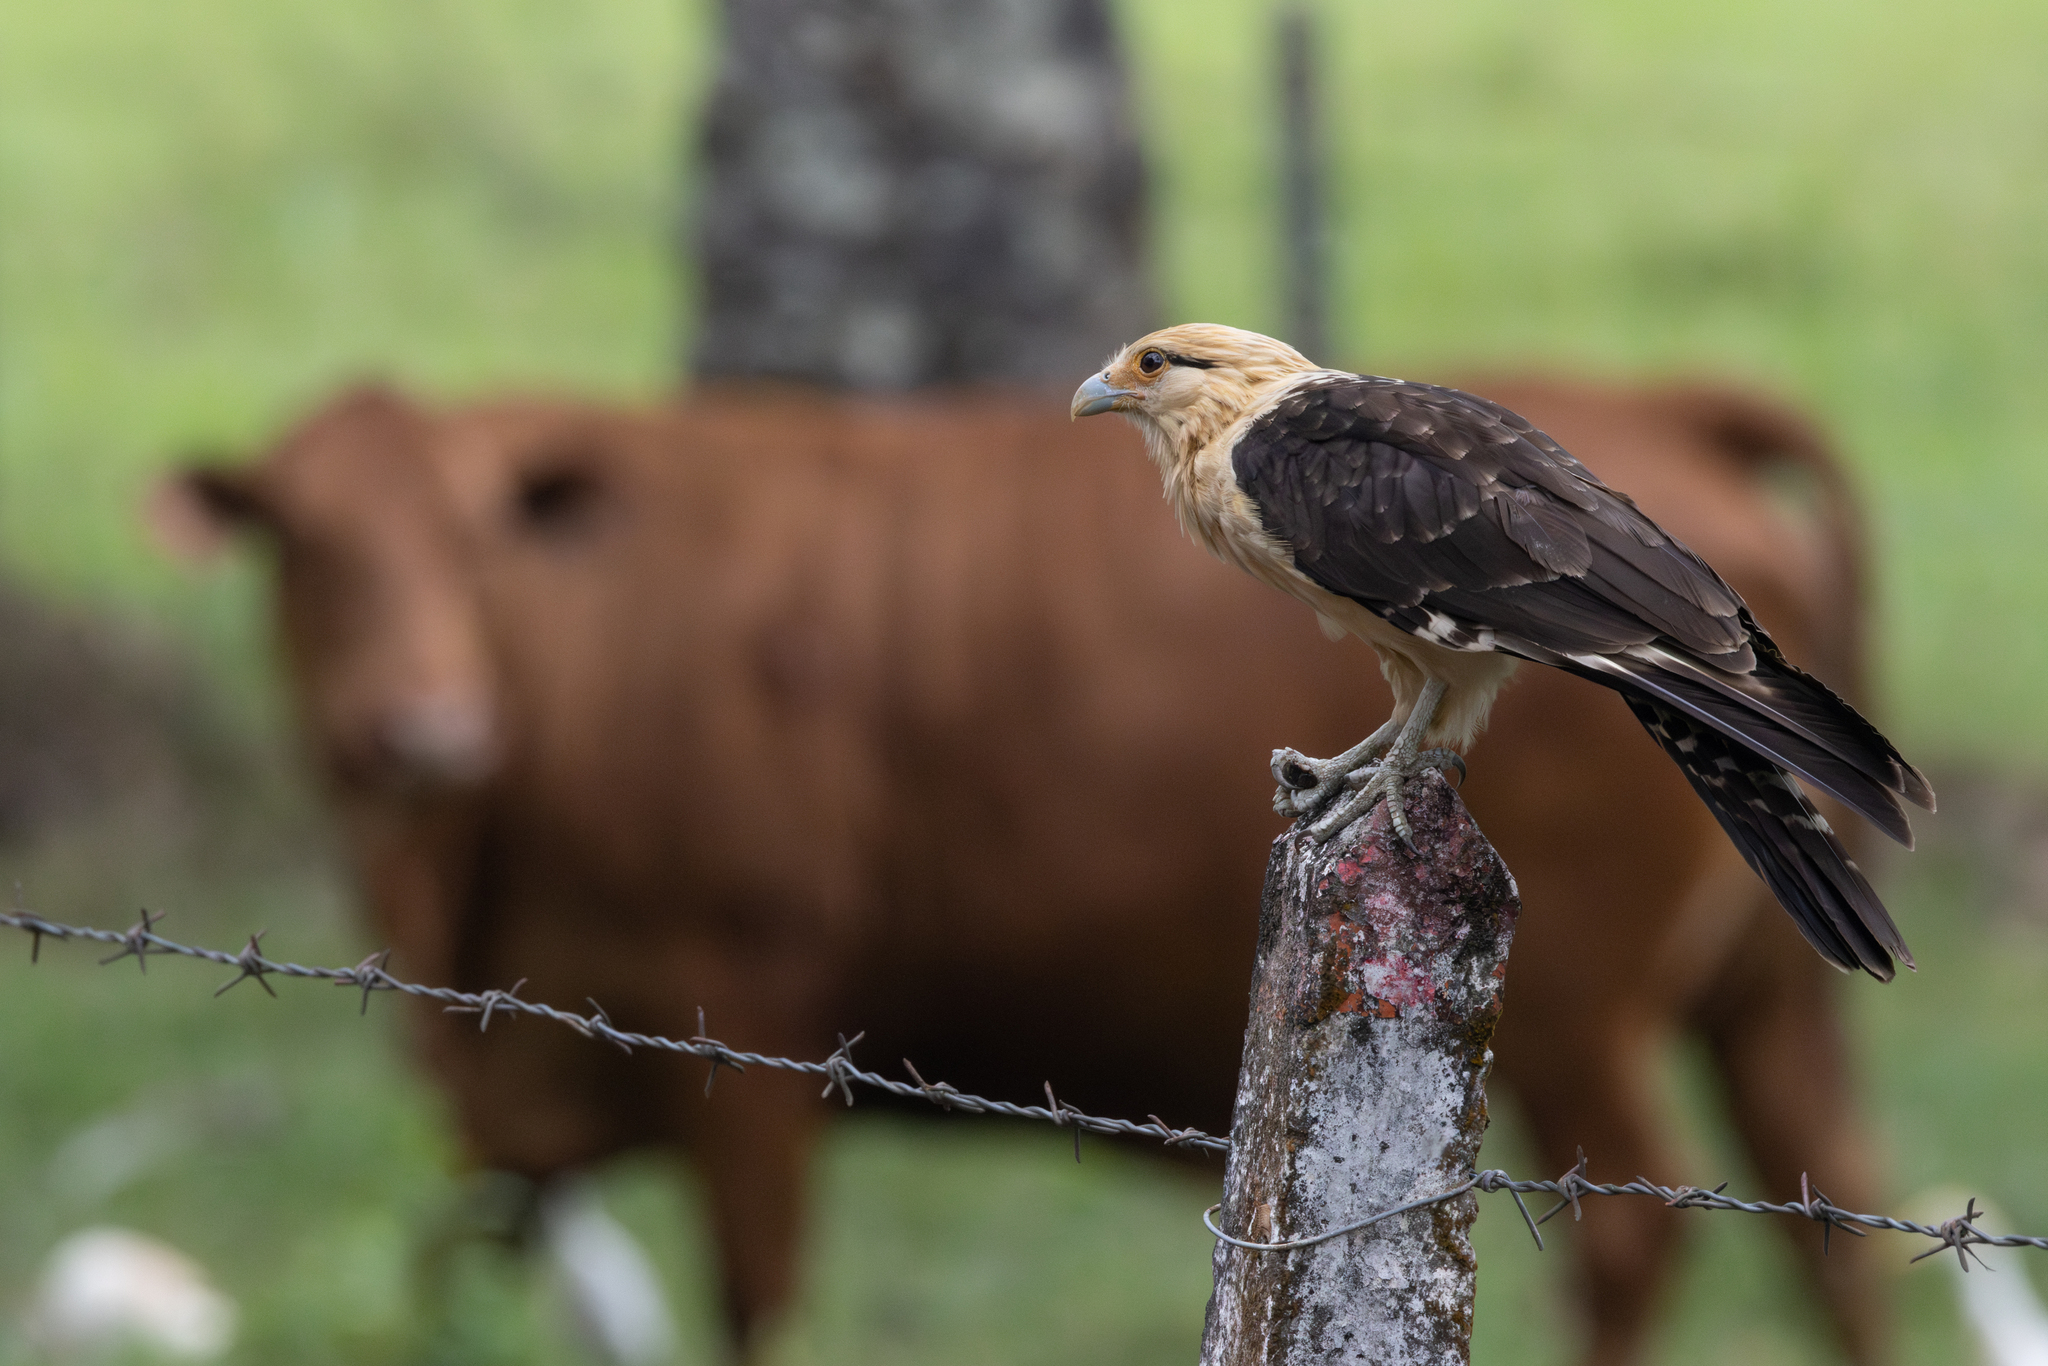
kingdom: Animalia
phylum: Chordata
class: Aves
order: Falconiformes
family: Falconidae
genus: Daptrius
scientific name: Daptrius
